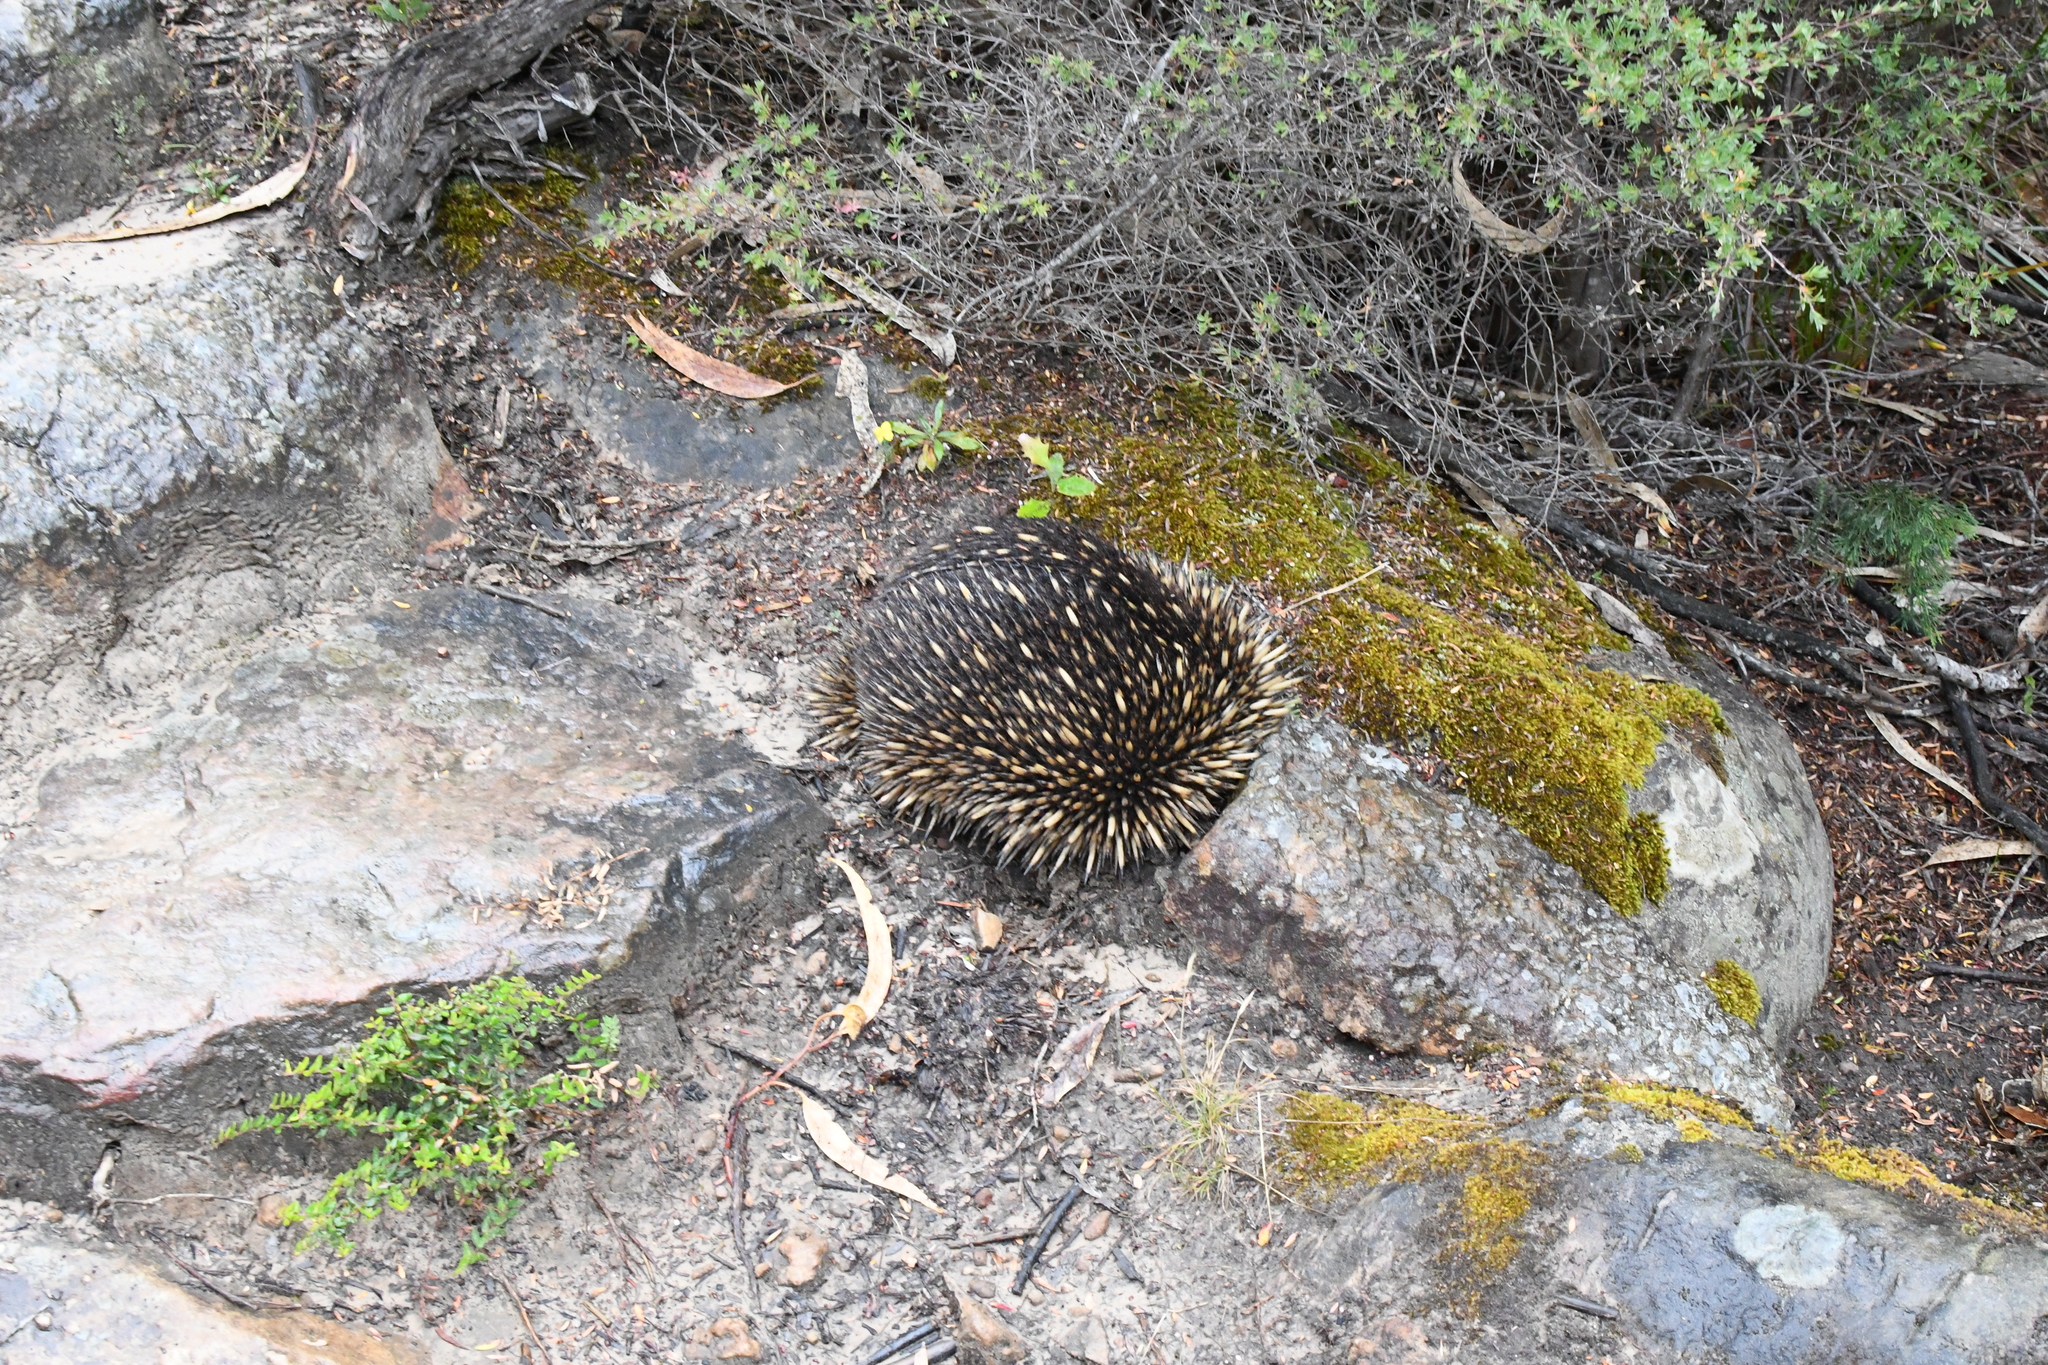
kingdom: Animalia
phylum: Chordata
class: Mammalia
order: Monotremata
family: Tachyglossidae
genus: Tachyglossus
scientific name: Tachyglossus aculeatus
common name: Short-beaked echidna
